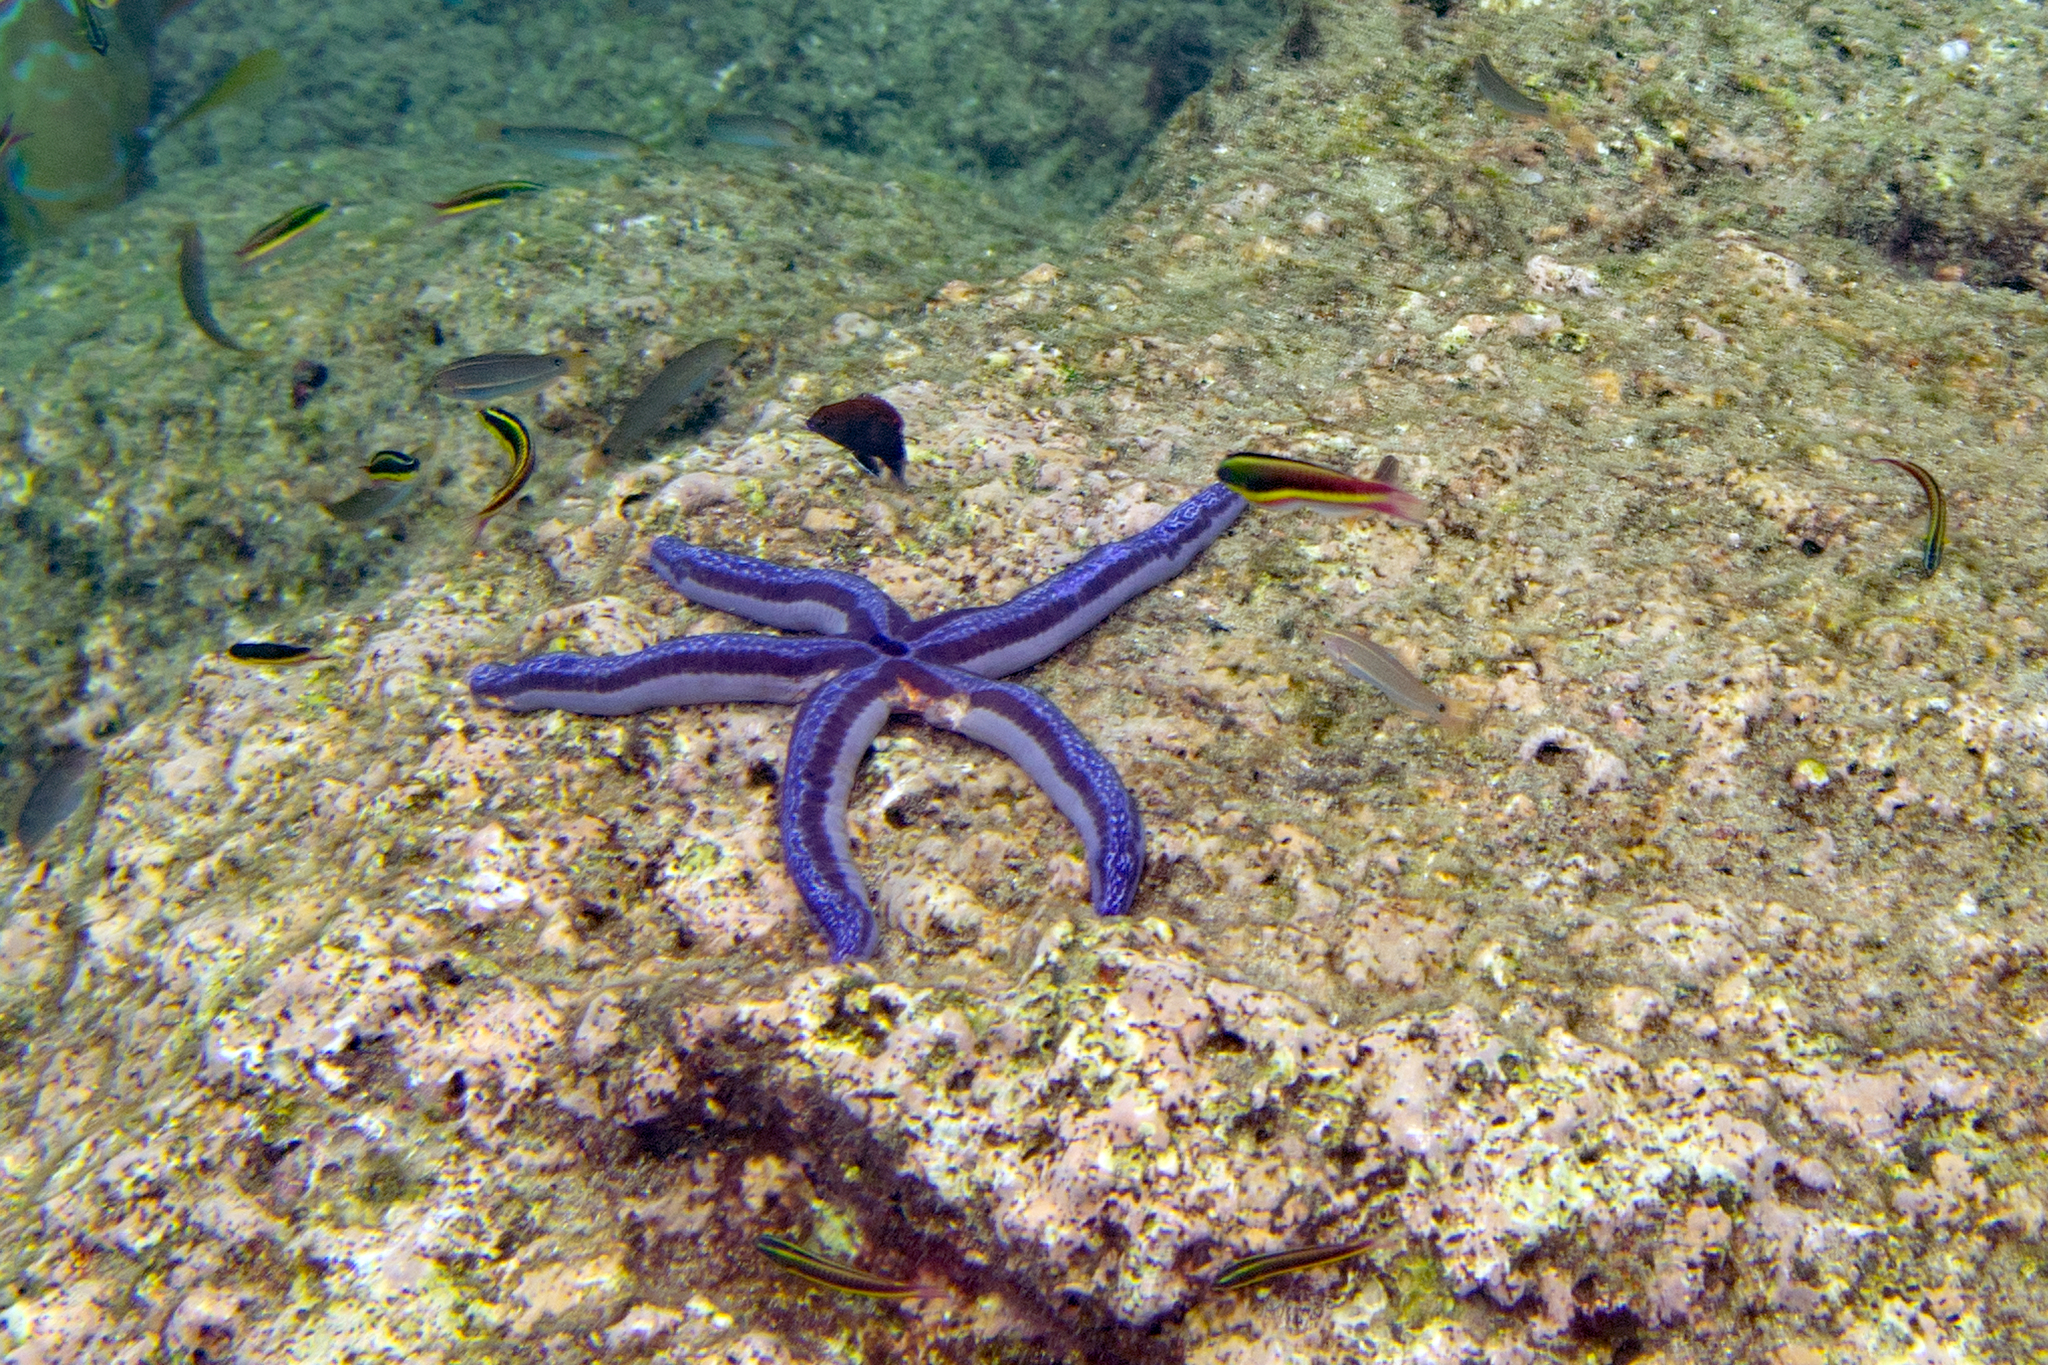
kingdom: Animalia
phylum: Echinodermata
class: Asteroidea
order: Valvatida
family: Ophidiasteridae
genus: Phataria
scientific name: Phataria unifascialis
